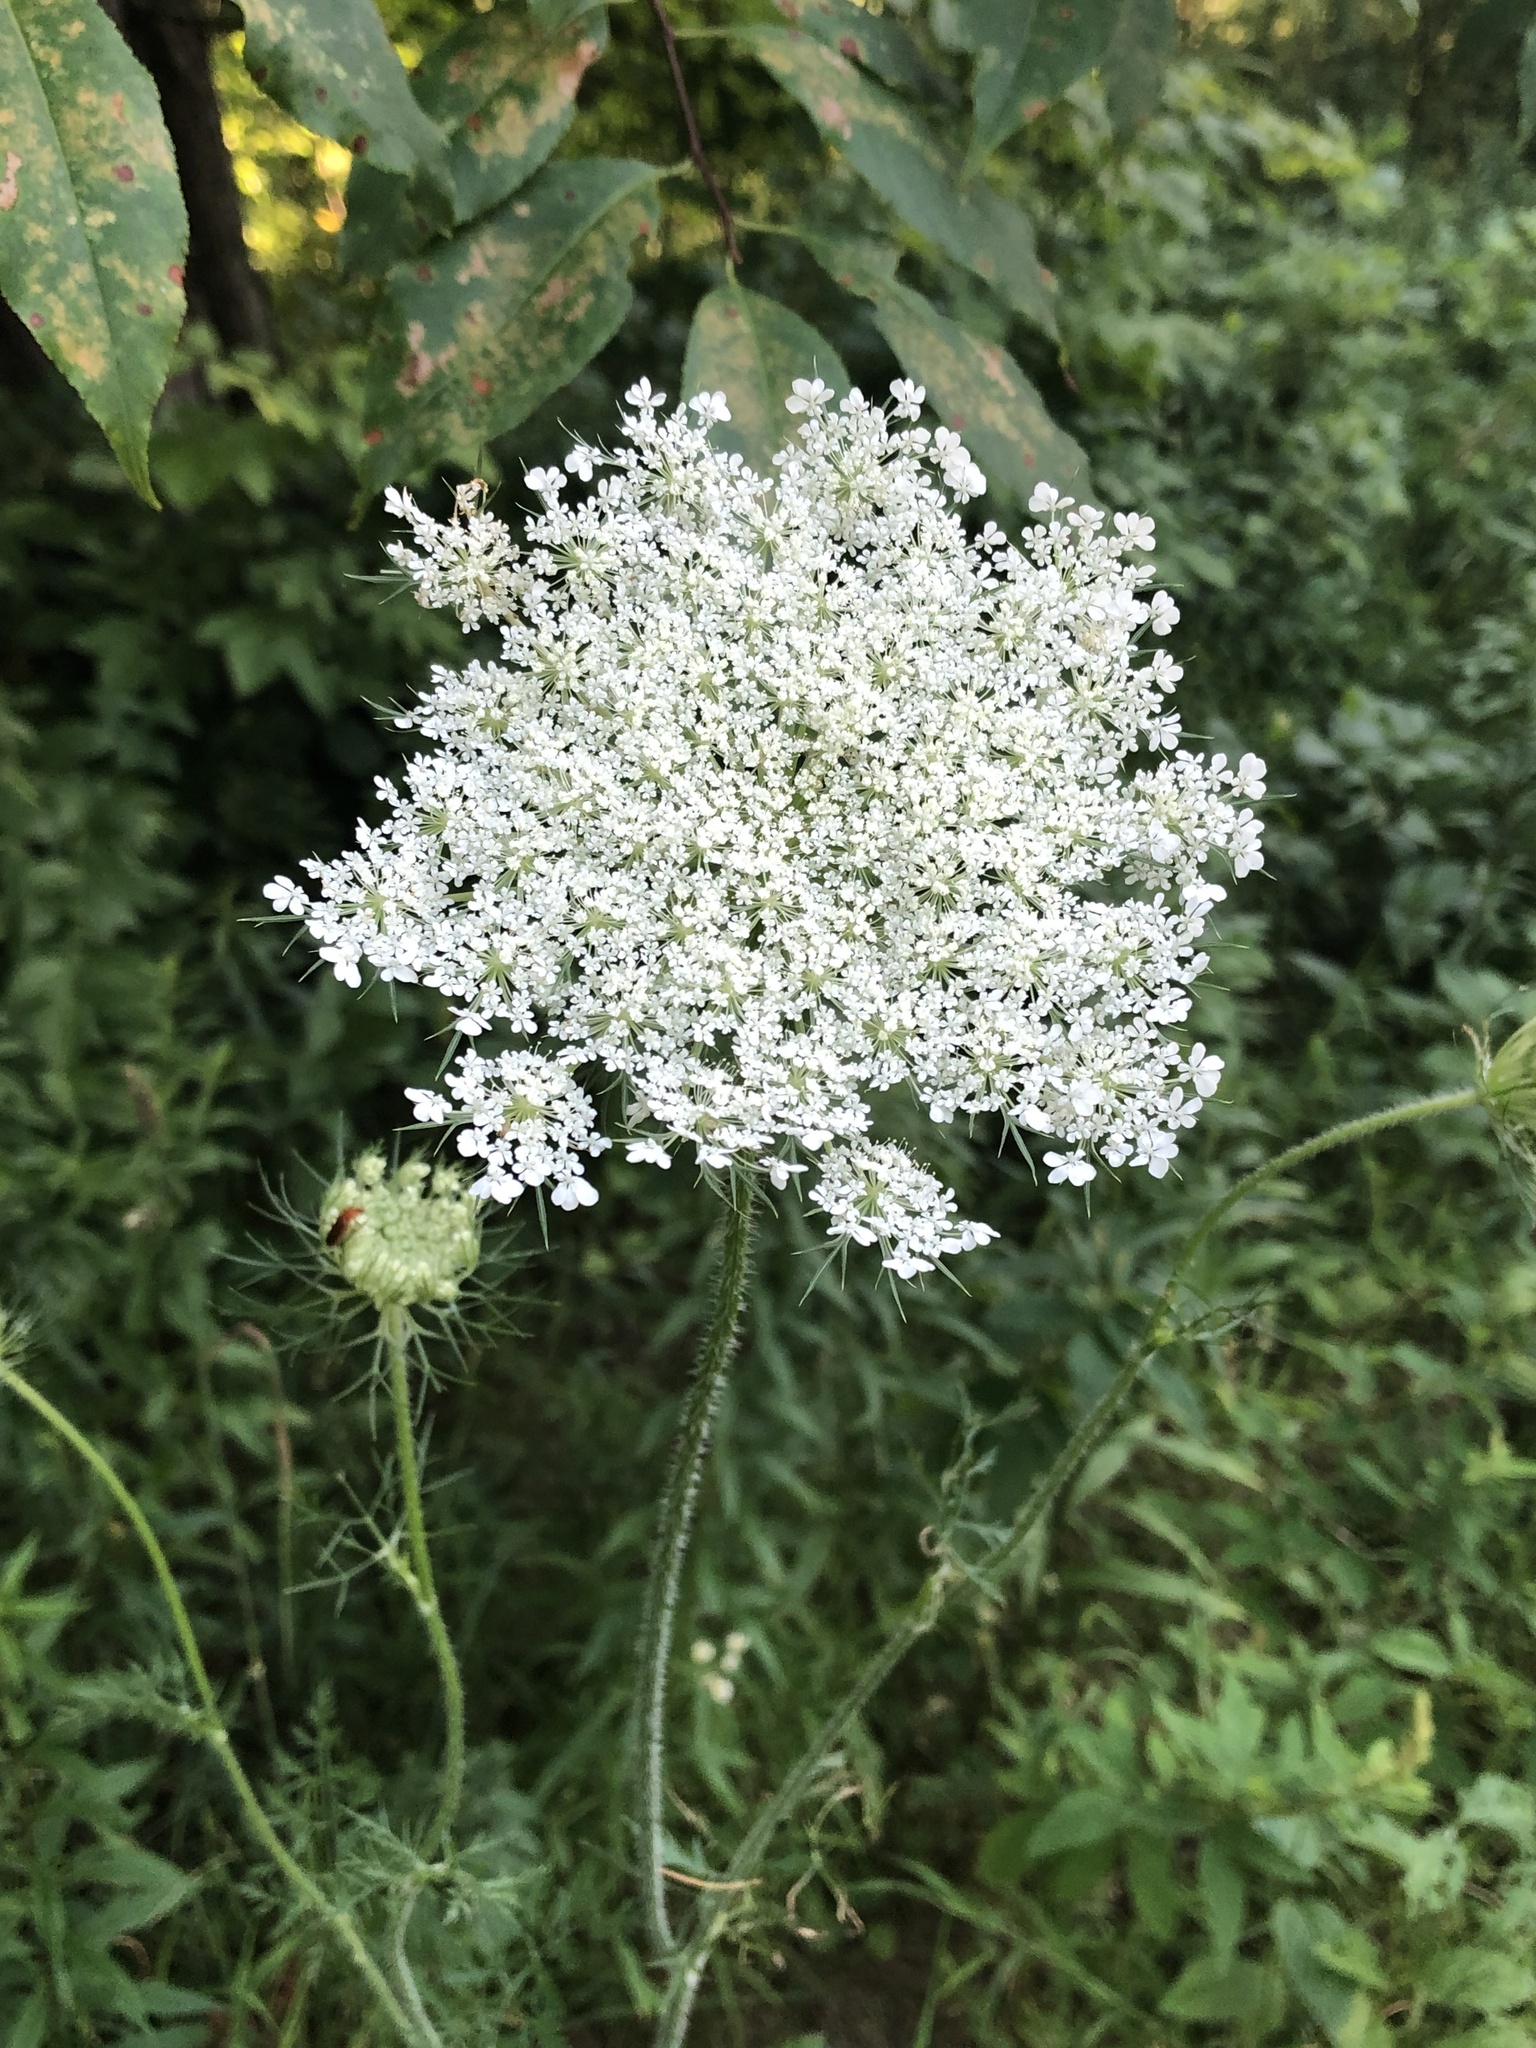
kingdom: Plantae
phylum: Tracheophyta
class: Magnoliopsida
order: Apiales
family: Apiaceae
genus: Daucus
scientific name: Daucus carota
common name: Wild carrot
